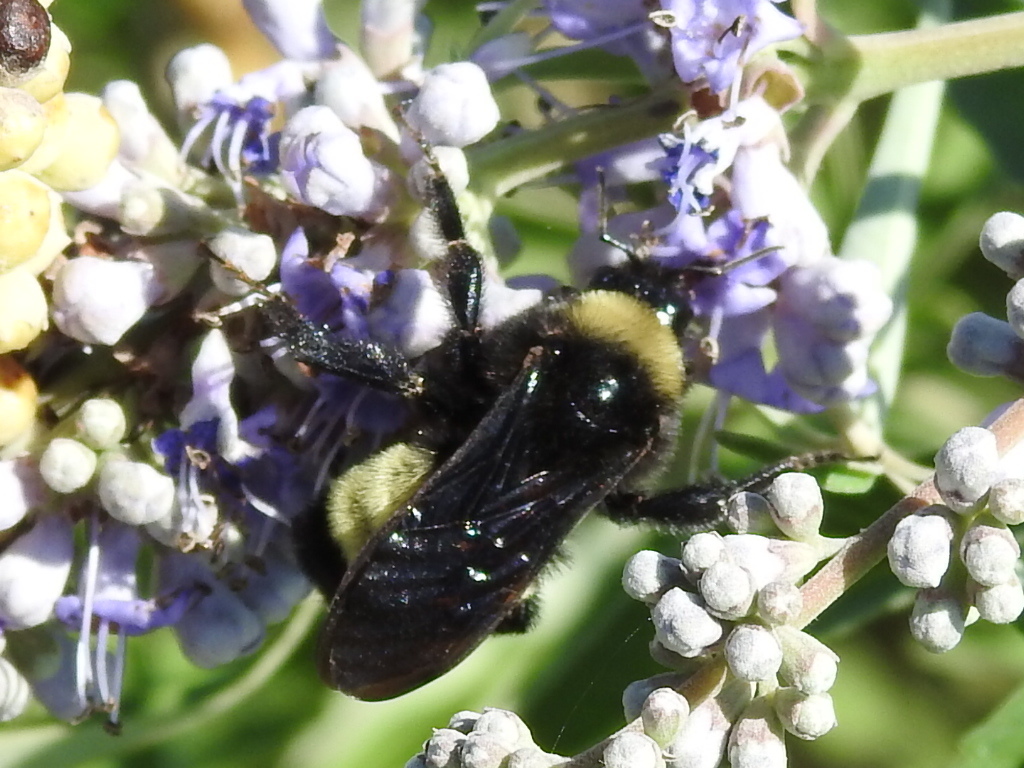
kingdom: Animalia
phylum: Arthropoda
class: Insecta
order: Hymenoptera
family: Apidae
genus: Bombus
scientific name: Bombus pensylvanicus
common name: Bumble bee
